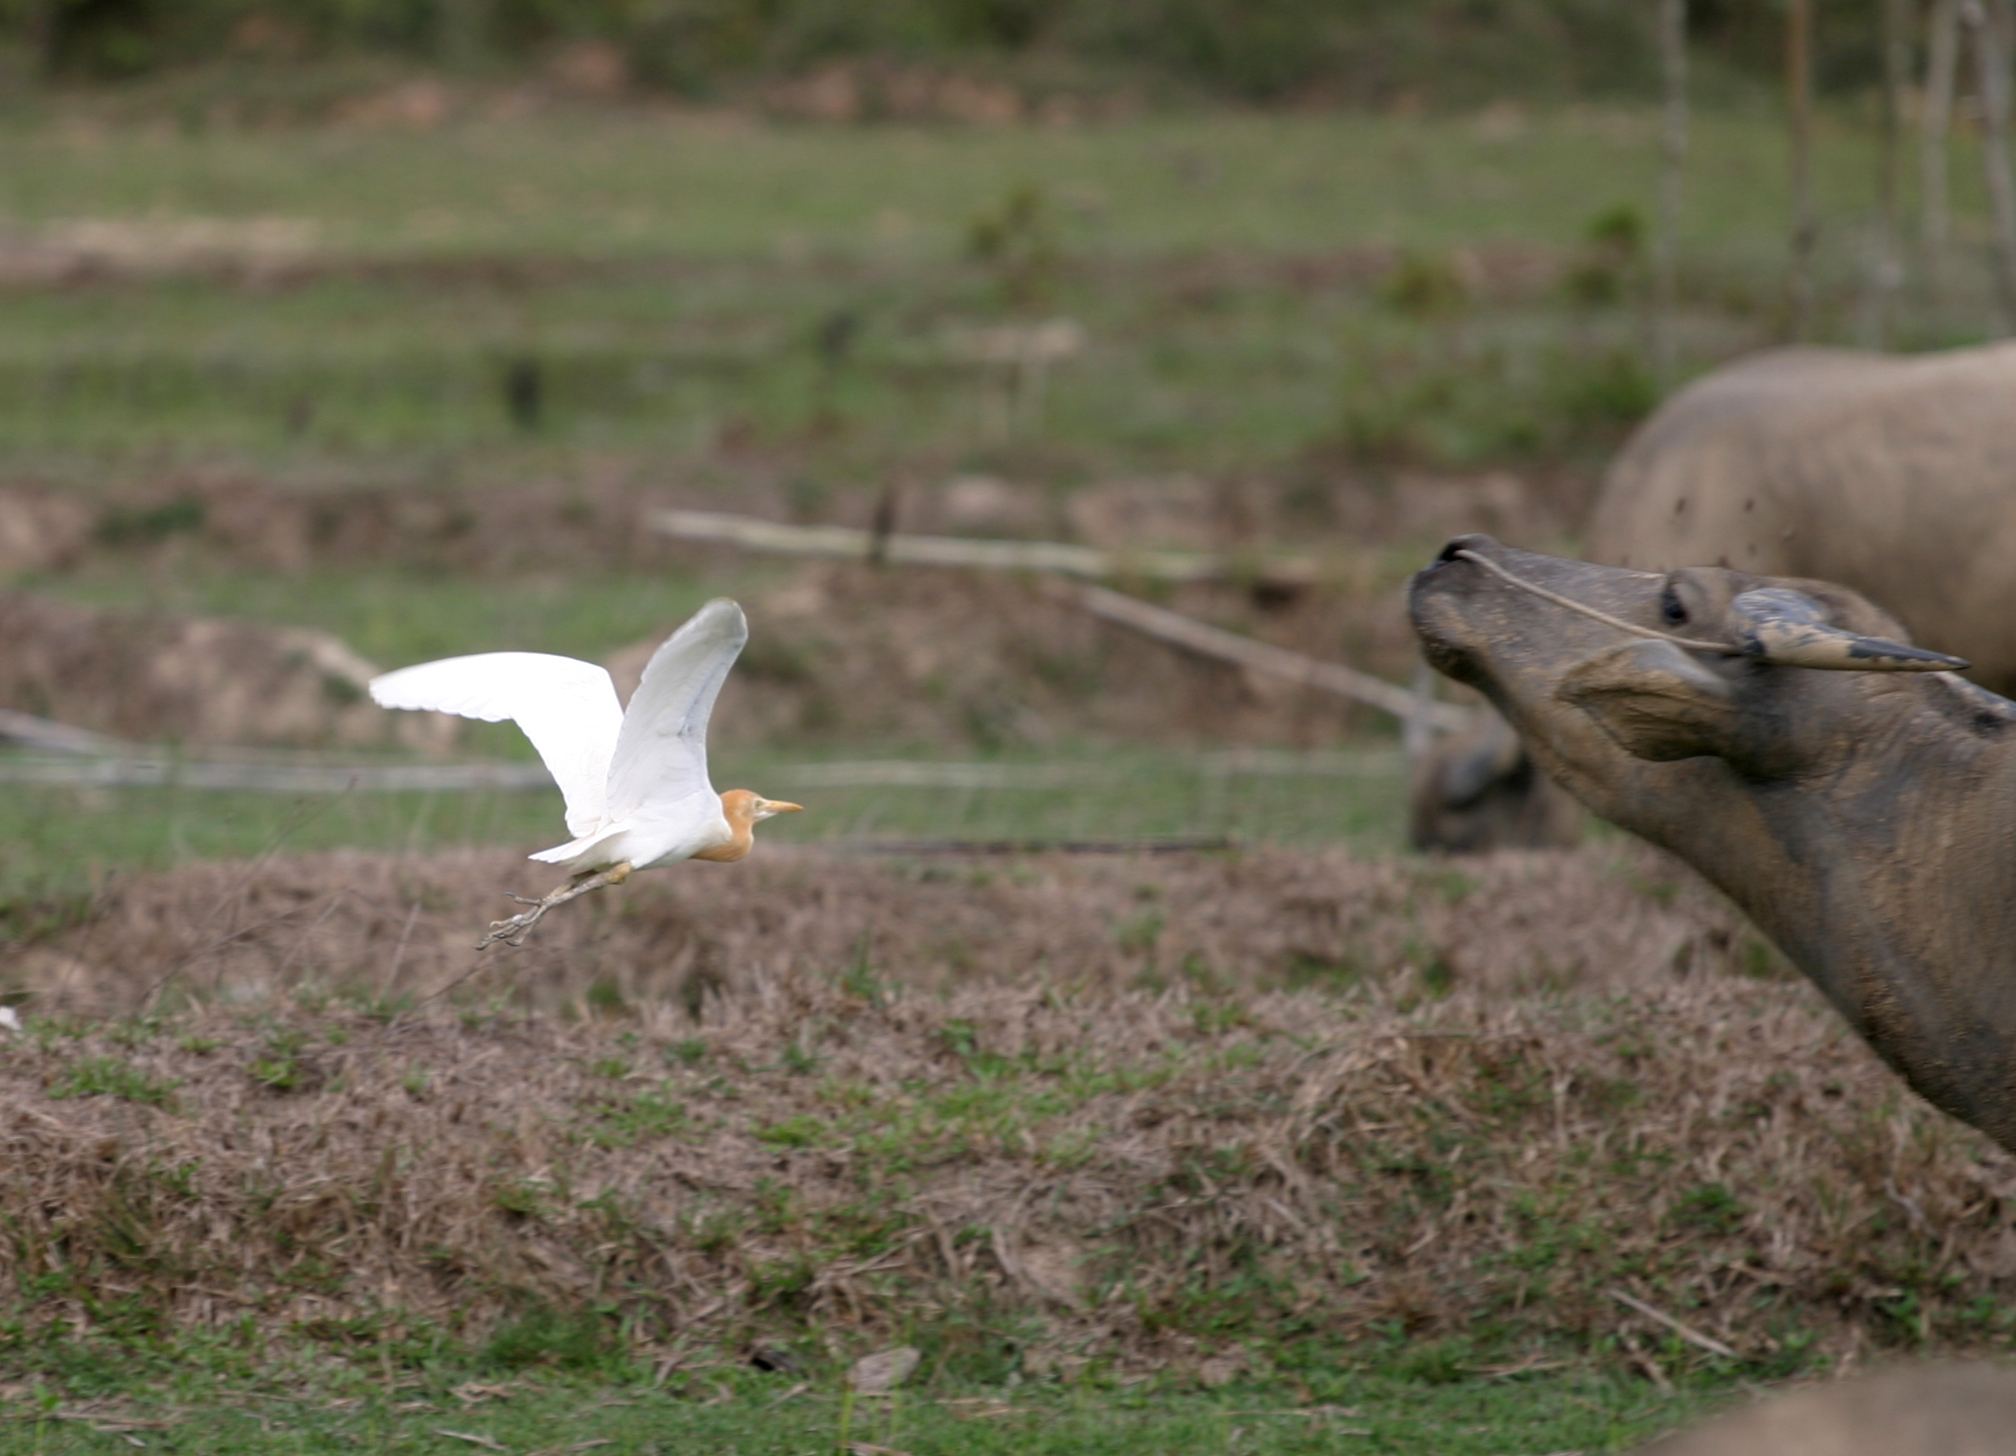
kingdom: Animalia
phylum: Chordata
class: Aves
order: Pelecaniformes
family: Ardeidae
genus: Bubulcus
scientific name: Bubulcus coromandus
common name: Eastern cattle egret
